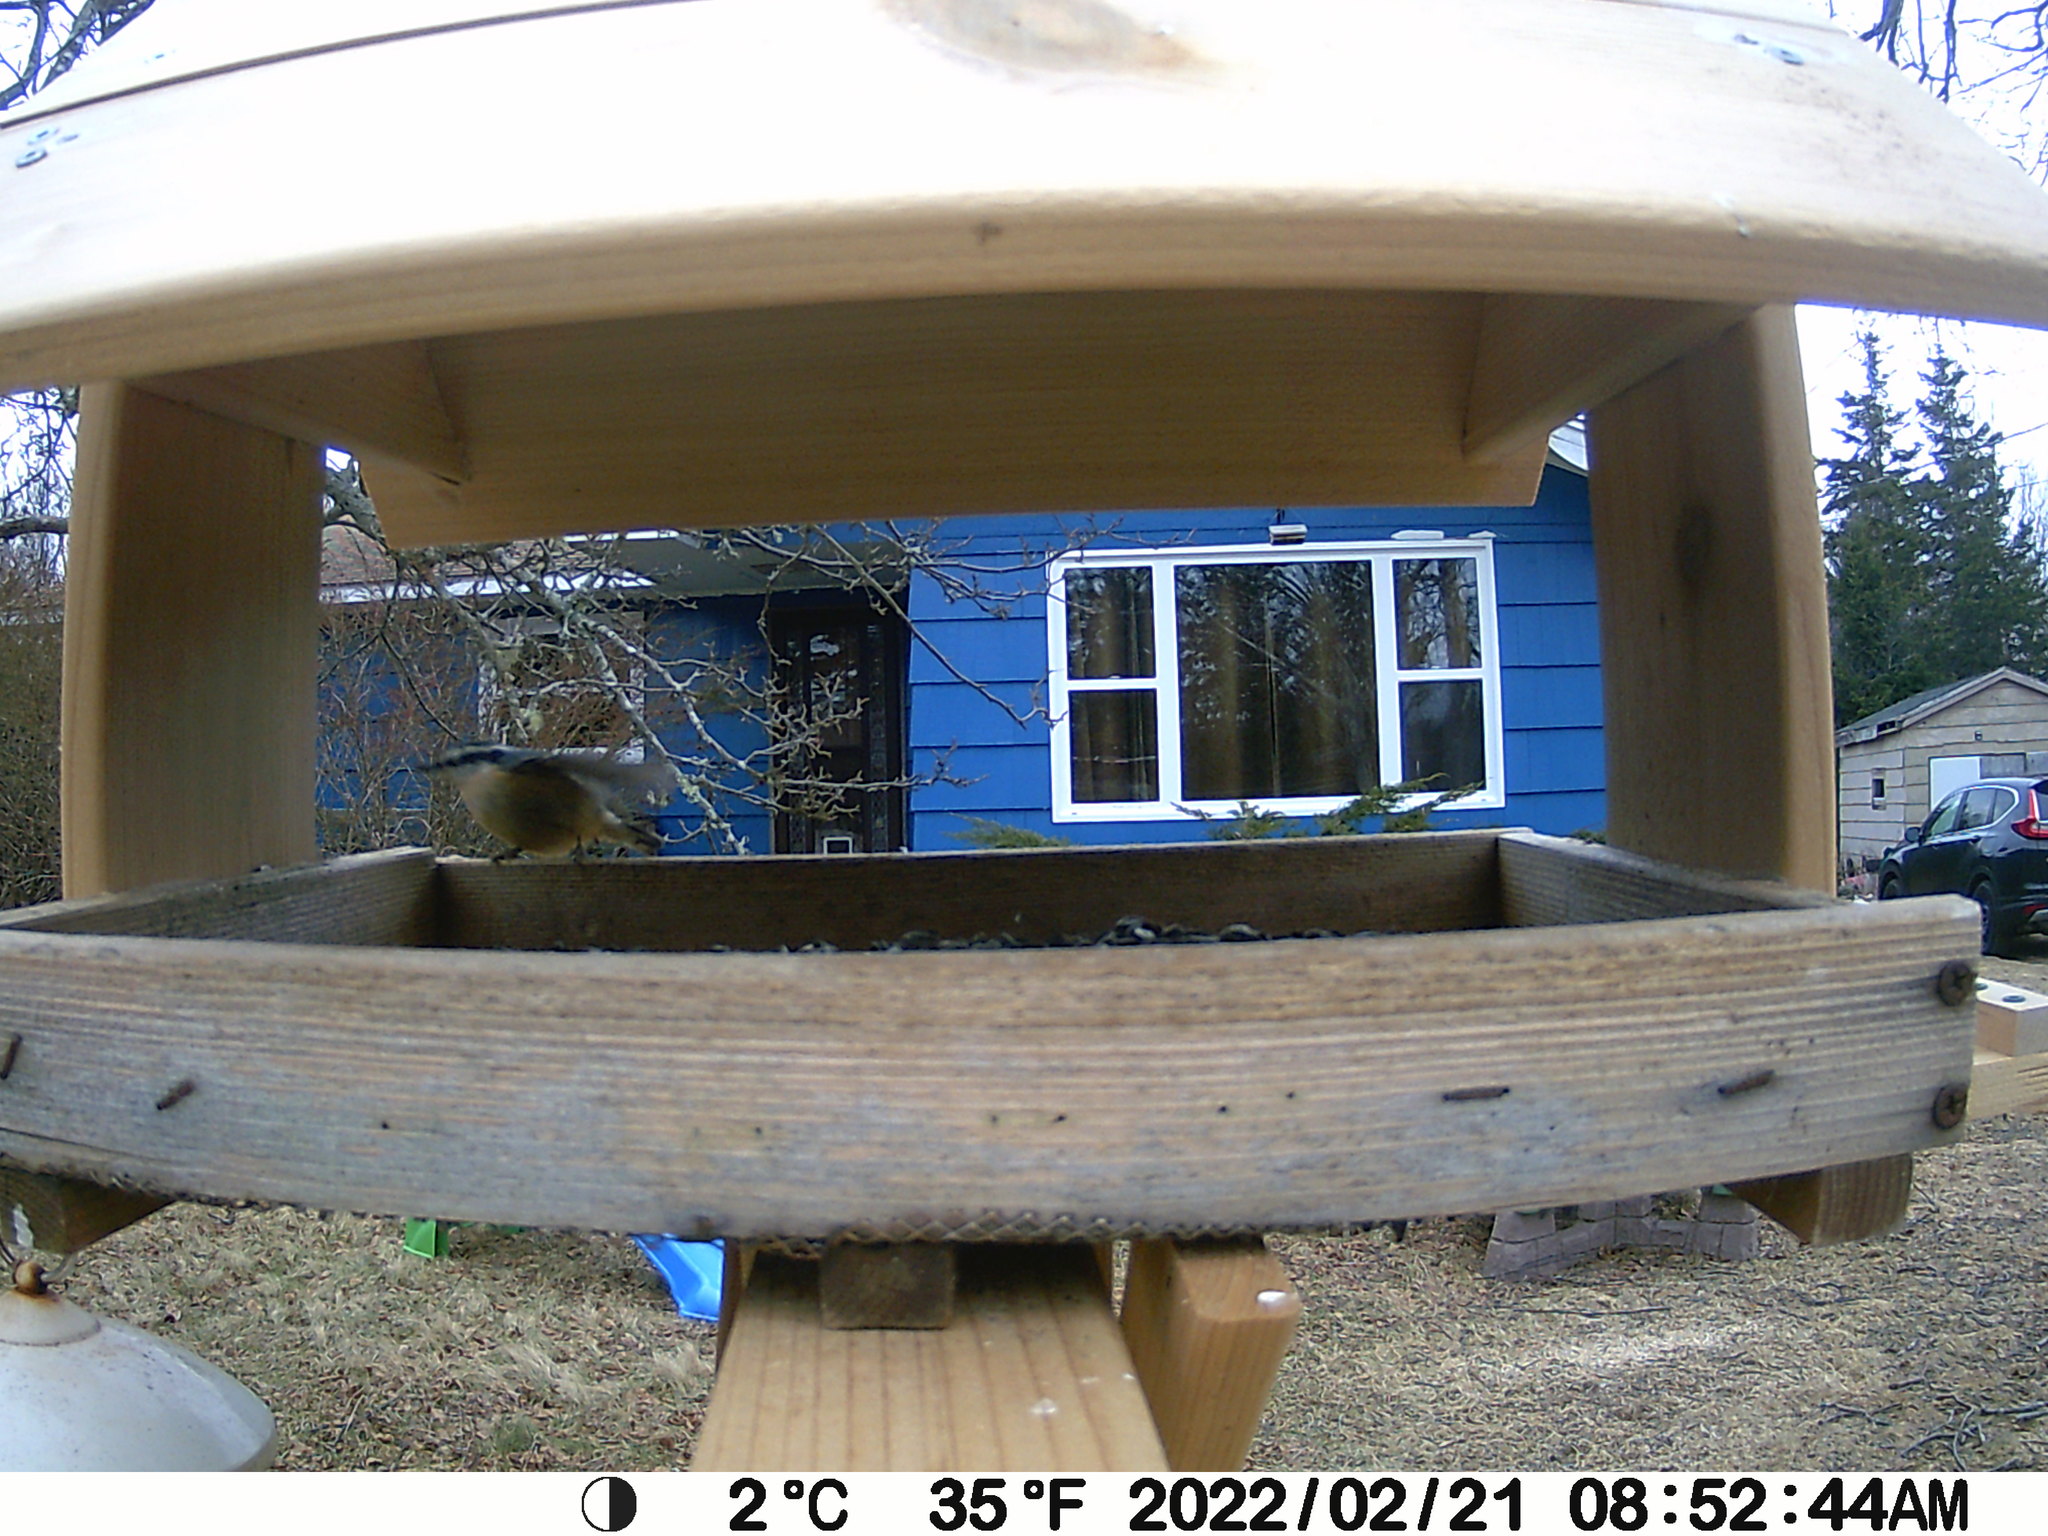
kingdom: Animalia
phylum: Chordata
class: Aves
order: Passeriformes
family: Sittidae
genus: Sitta
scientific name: Sitta canadensis
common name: Red-breasted nuthatch
